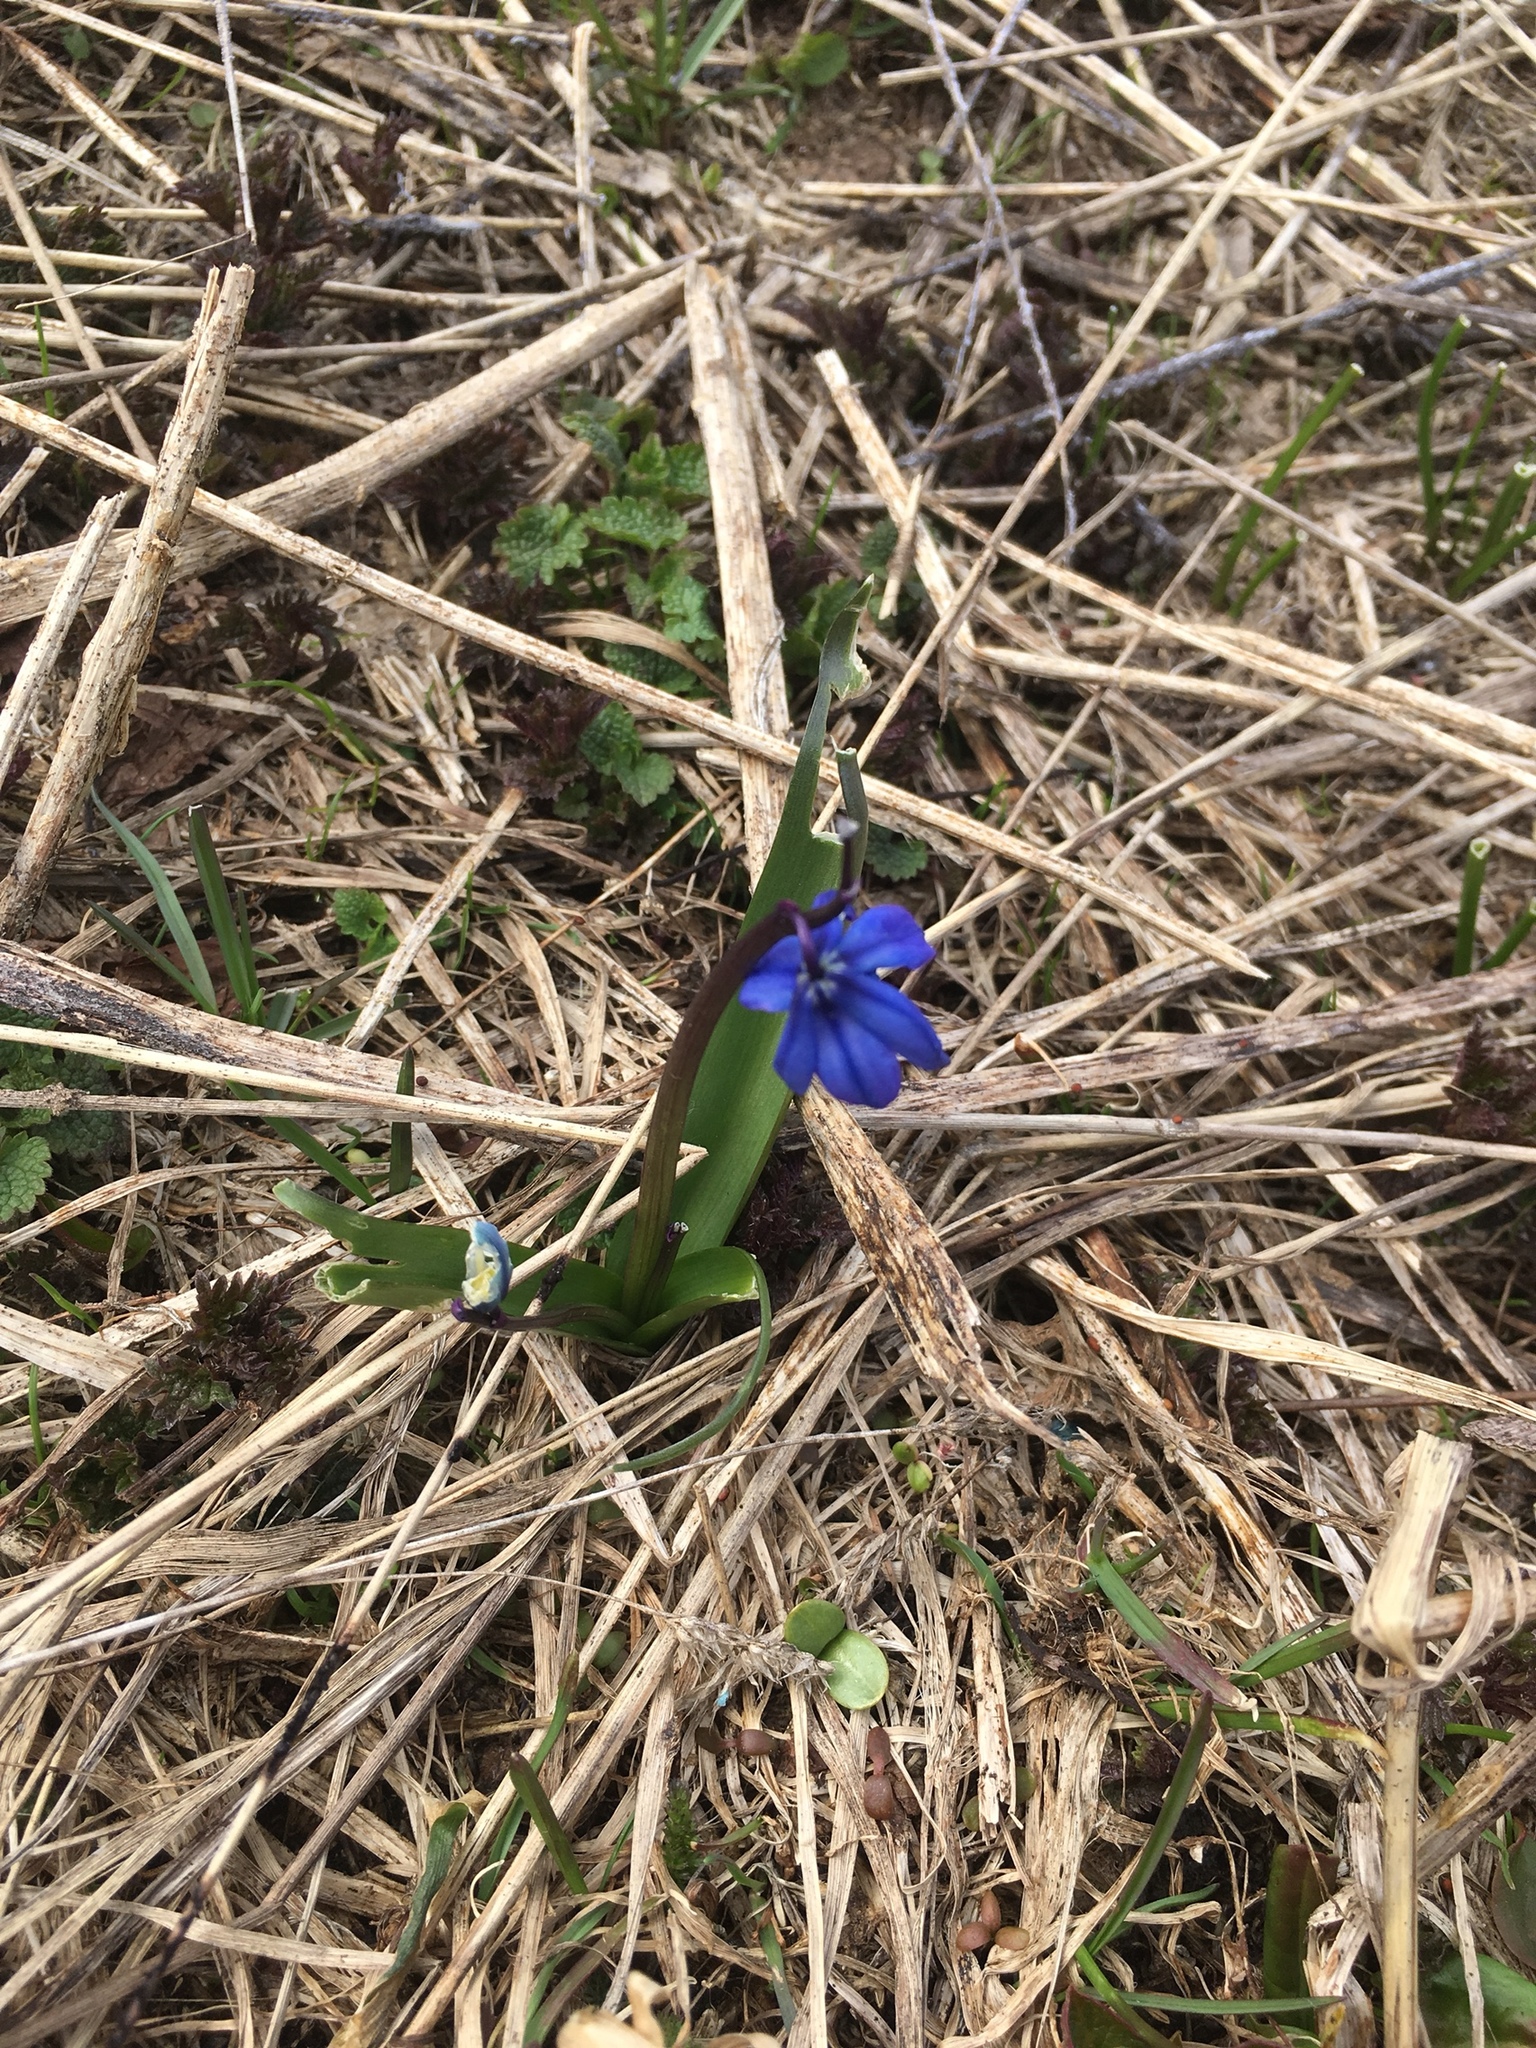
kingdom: Plantae
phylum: Tracheophyta
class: Liliopsida
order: Asparagales
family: Asparagaceae
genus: Scilla
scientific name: Scilla siberica
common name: Siberian squill
